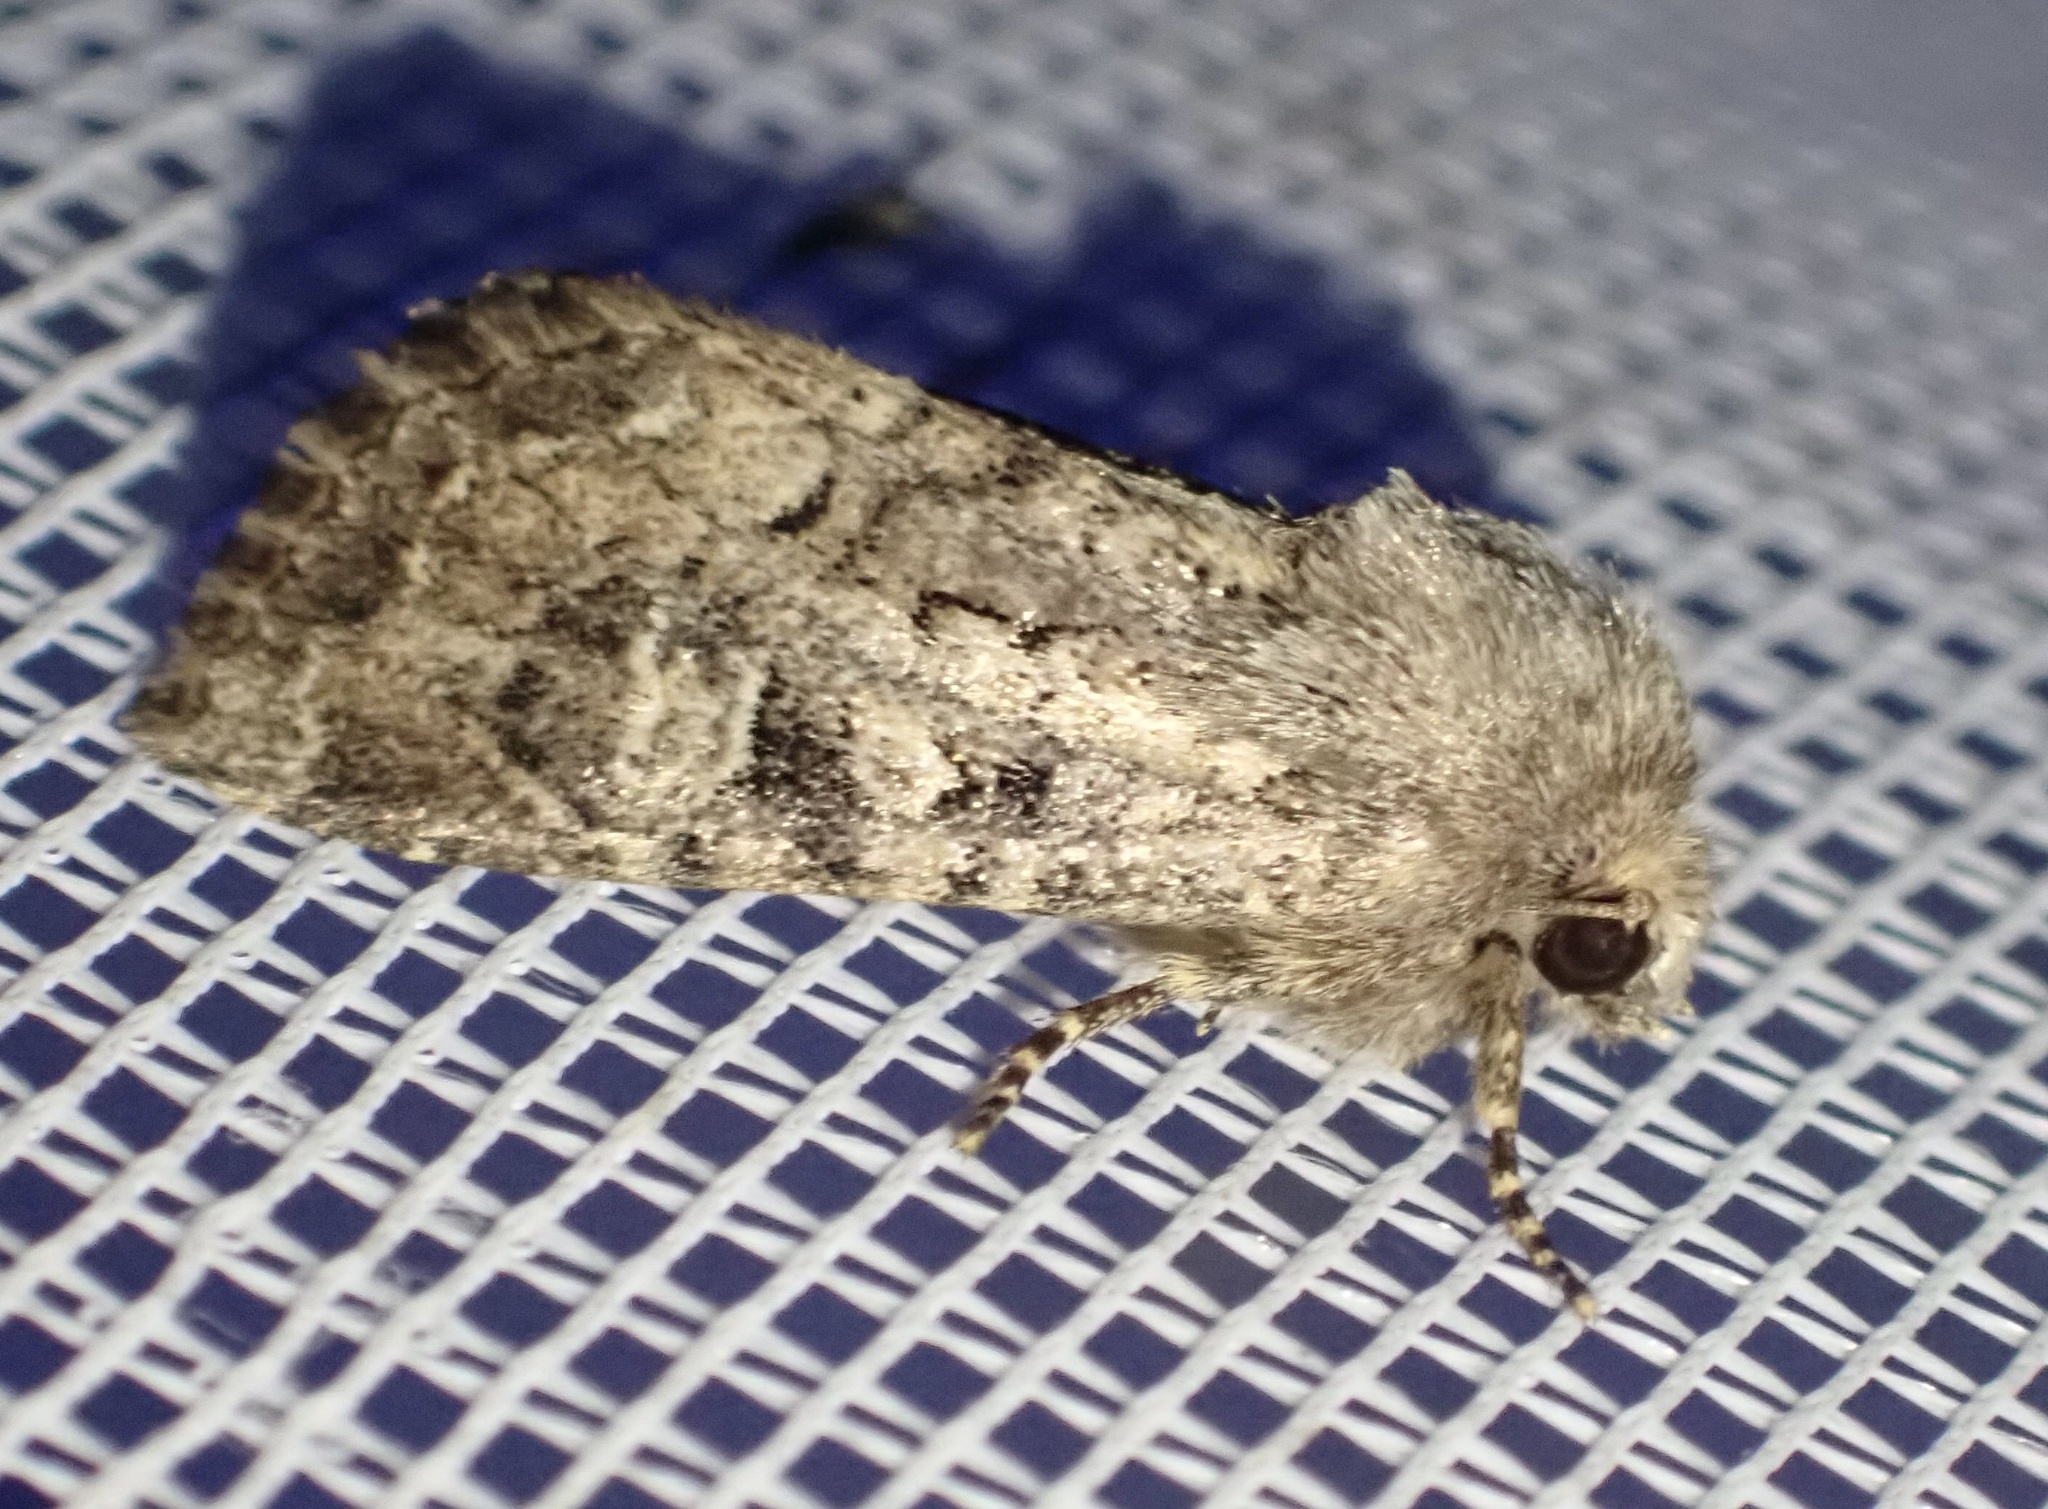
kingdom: Animalia
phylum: Arthropoda
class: Insecta
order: Lepidoptera
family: Noctuidae
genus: Luperina
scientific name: Luperina testacea
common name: Flounced rustic
